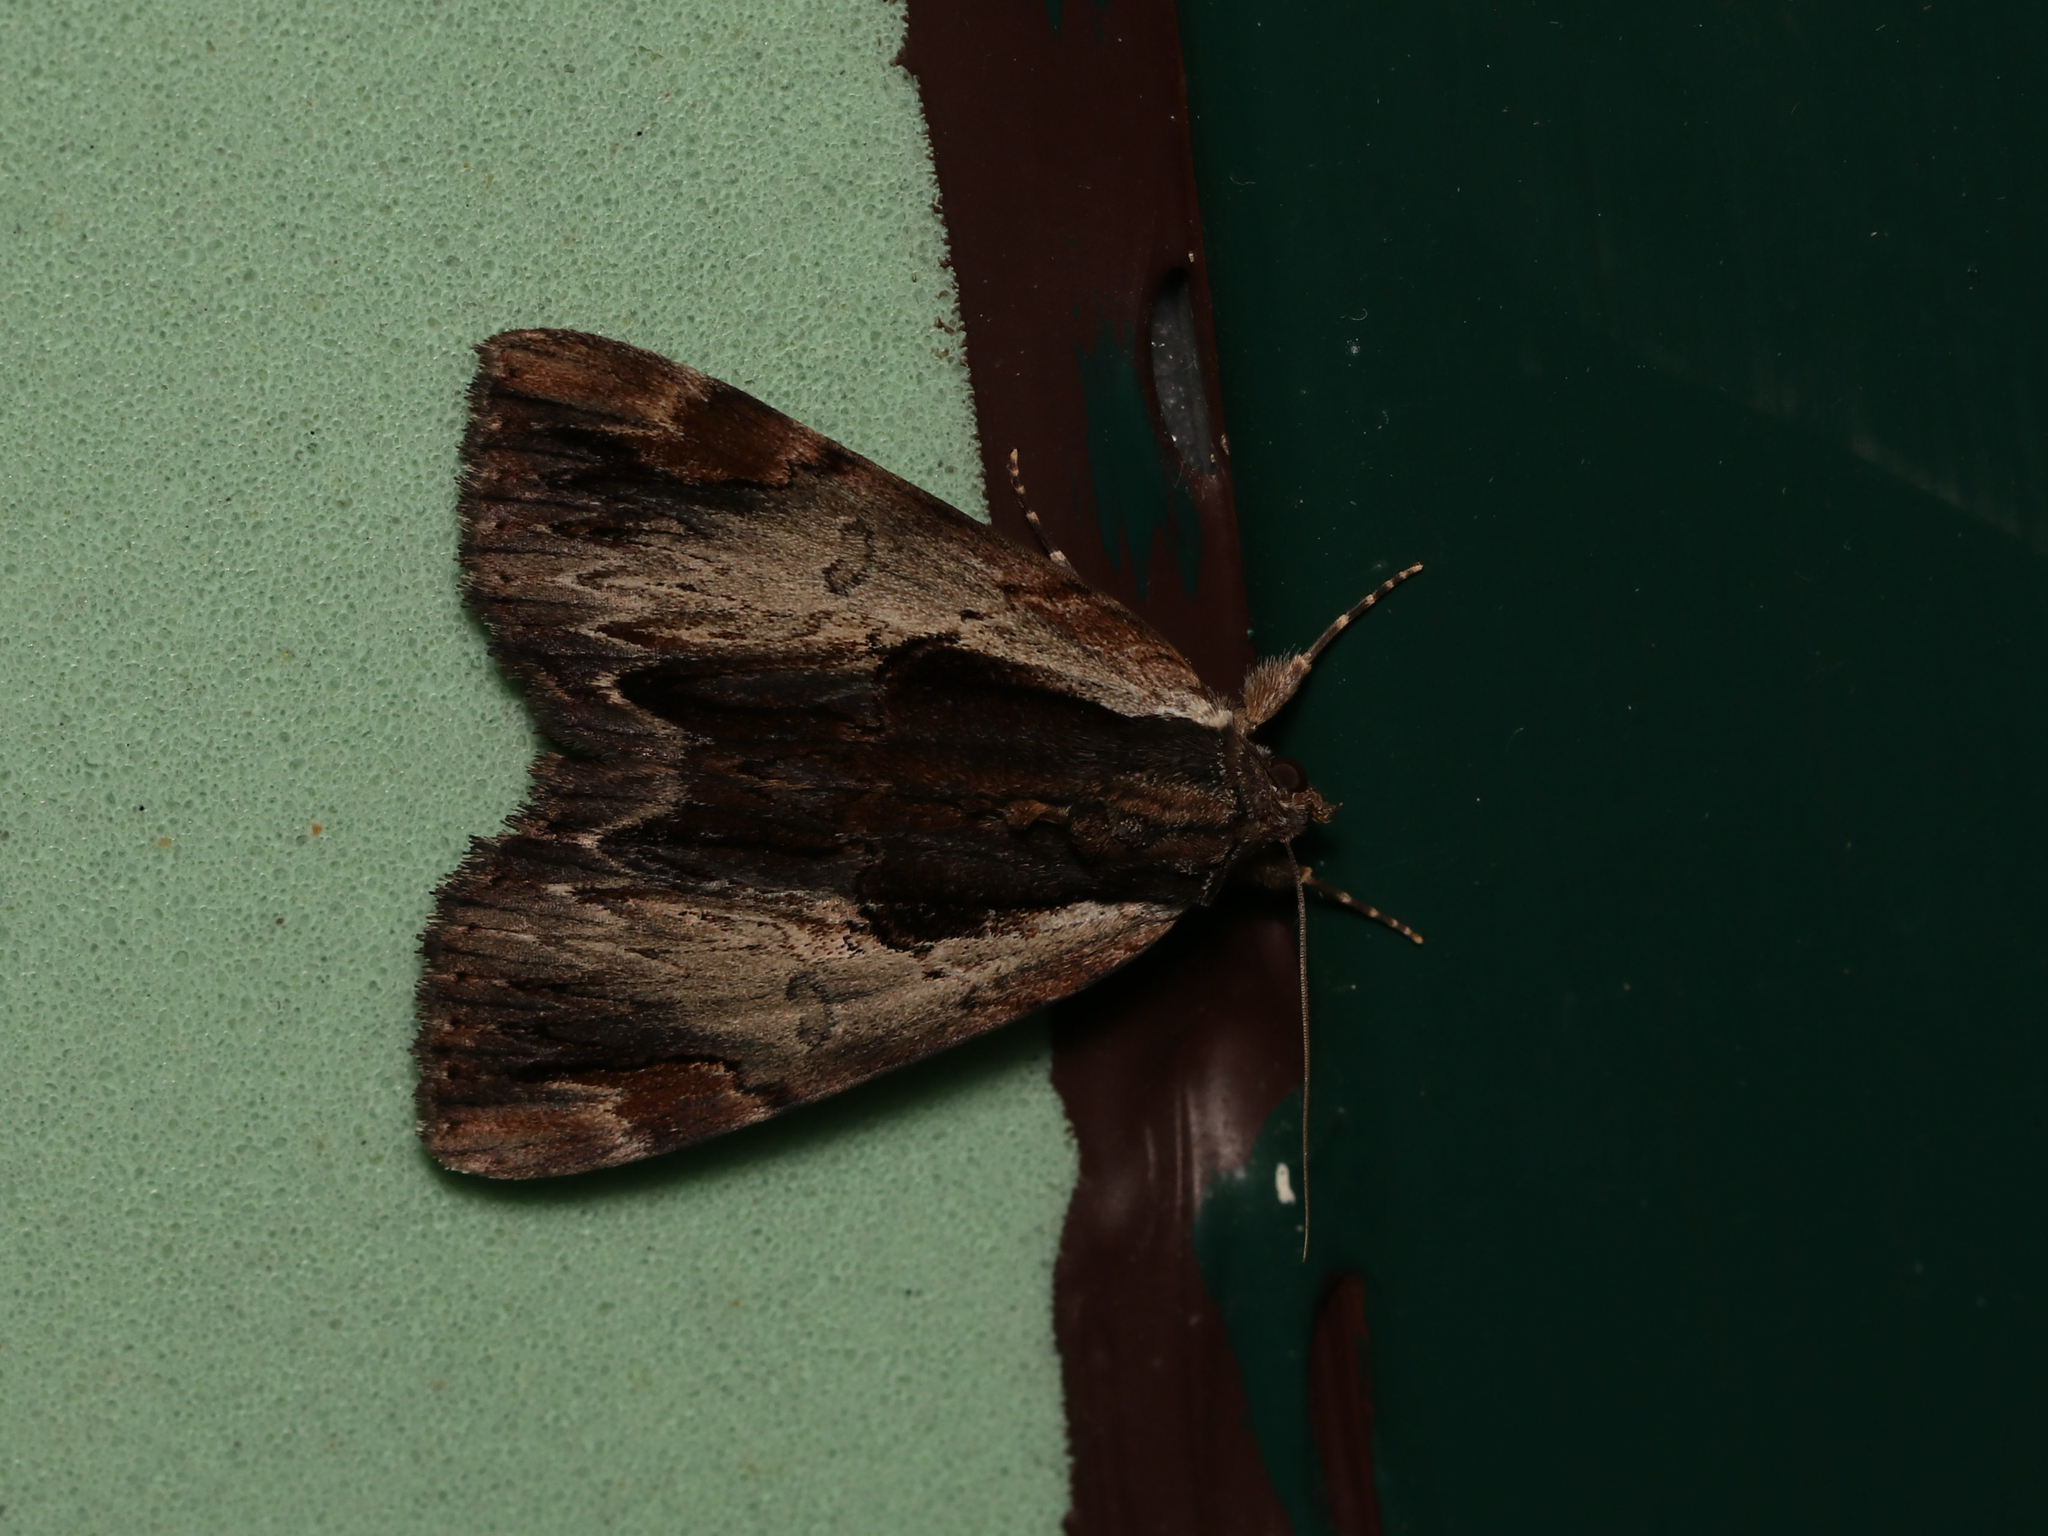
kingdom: Animalia
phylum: Arthropoda
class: Insecta
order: Lepidoptera
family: Erebidae
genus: Catocala
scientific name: Catocala ultronia
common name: Ultronia underwing
